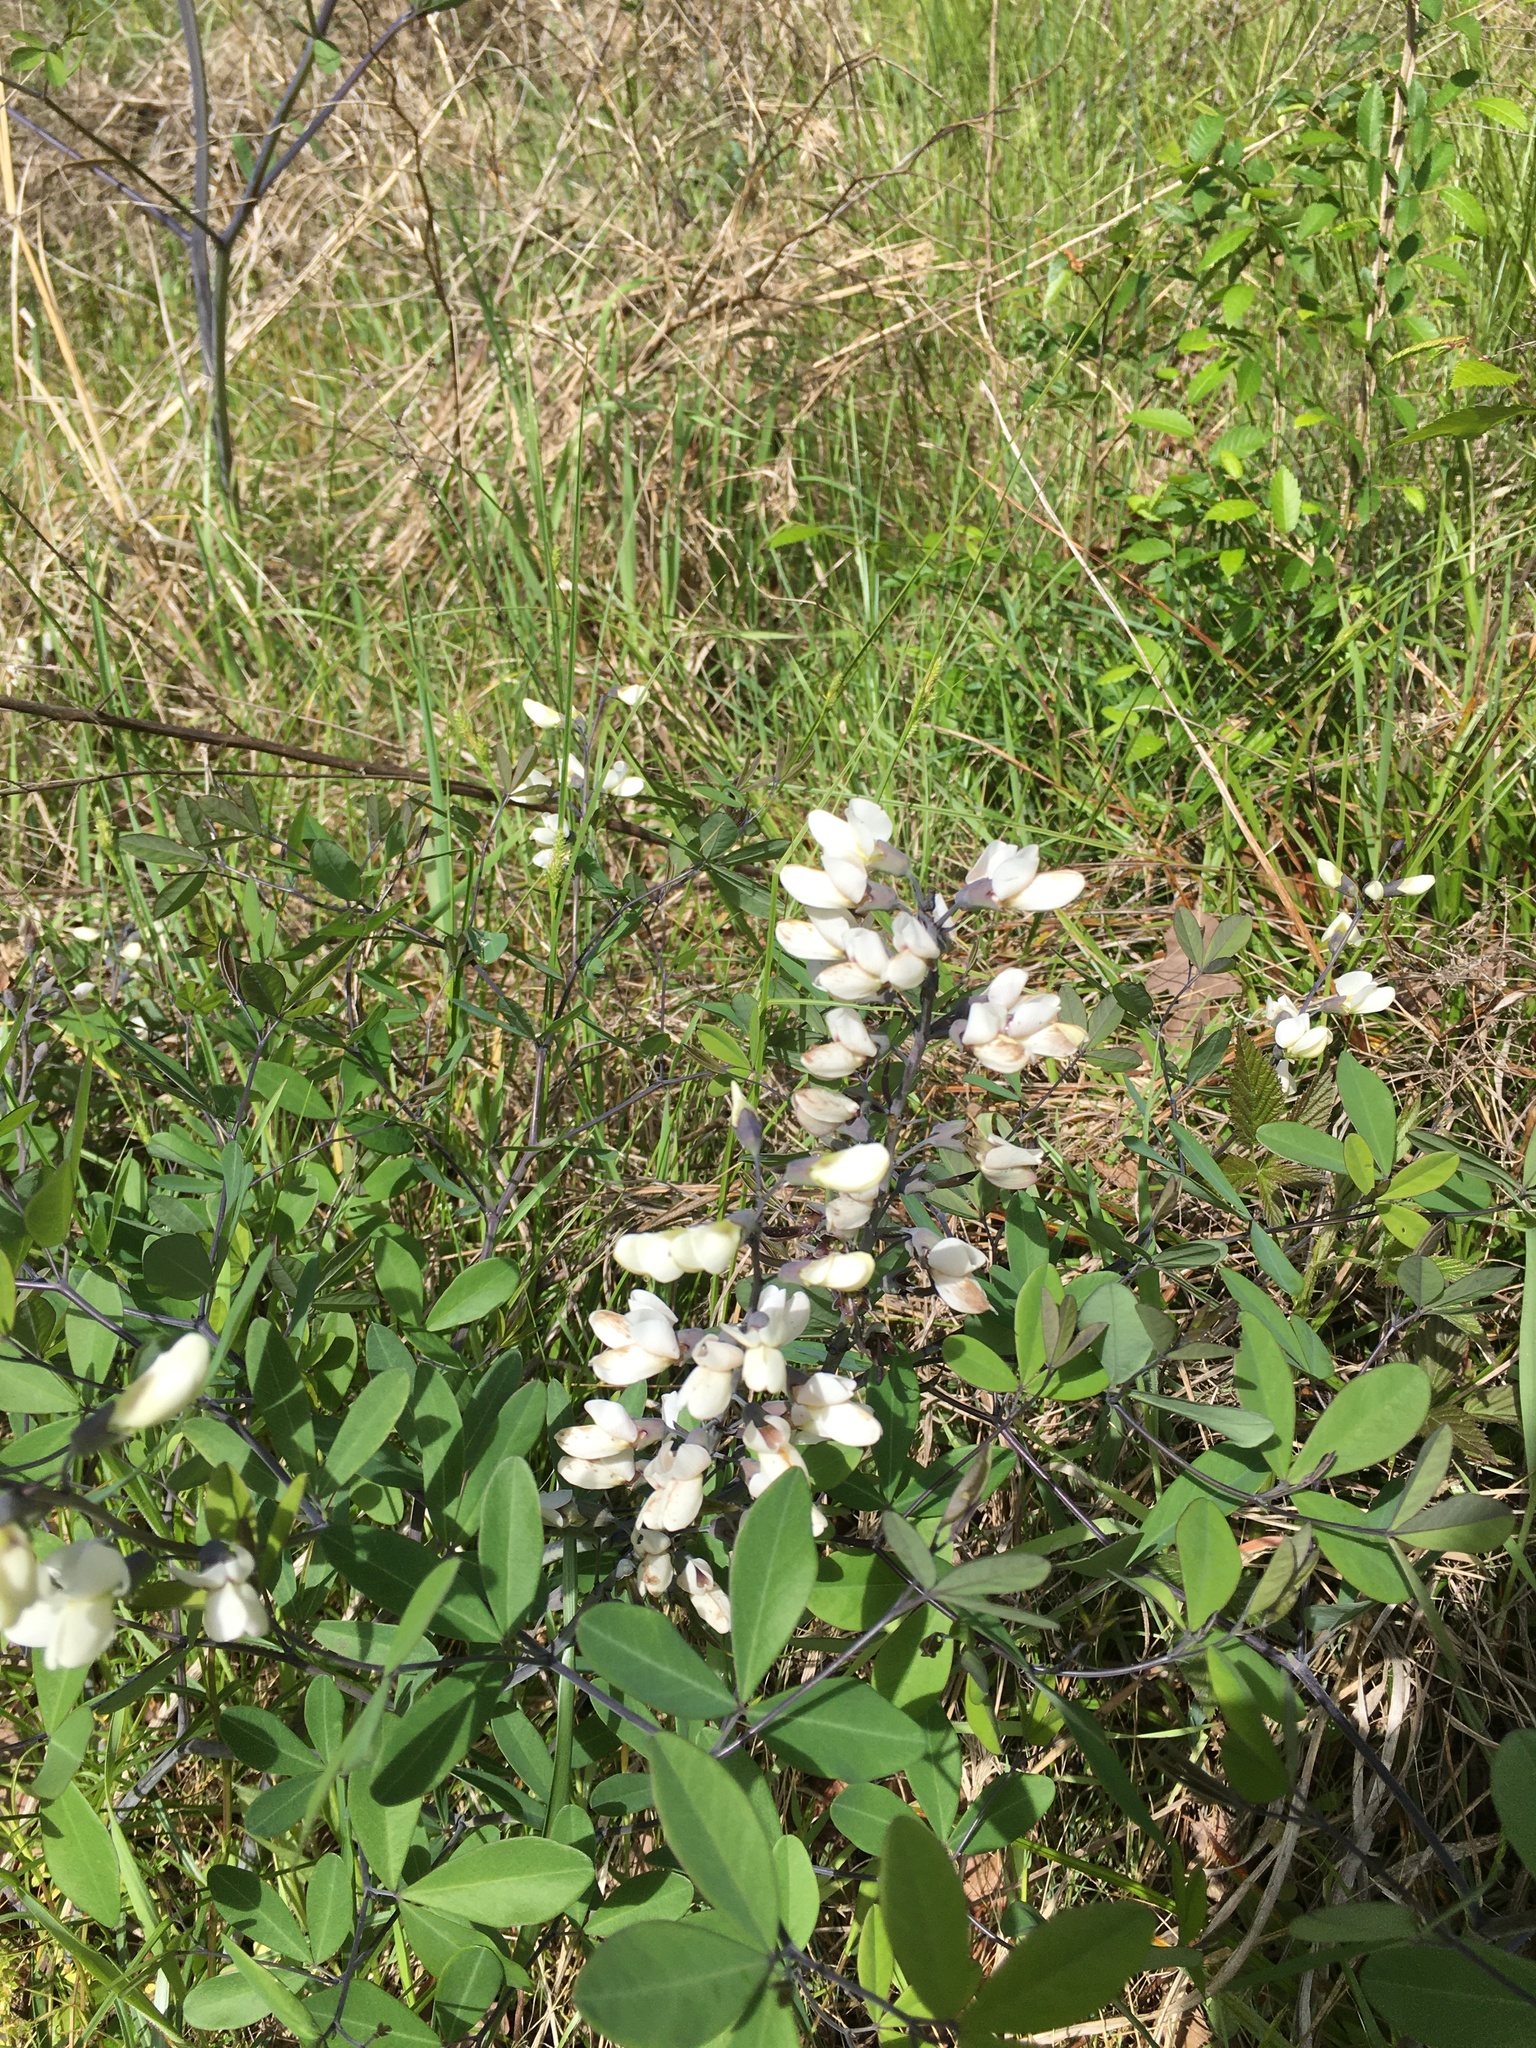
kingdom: Plantae
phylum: Tracheophyta
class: Magnoliopsida
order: Fabales
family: Fabaceae
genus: Baptisia
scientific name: Baptisia alba
